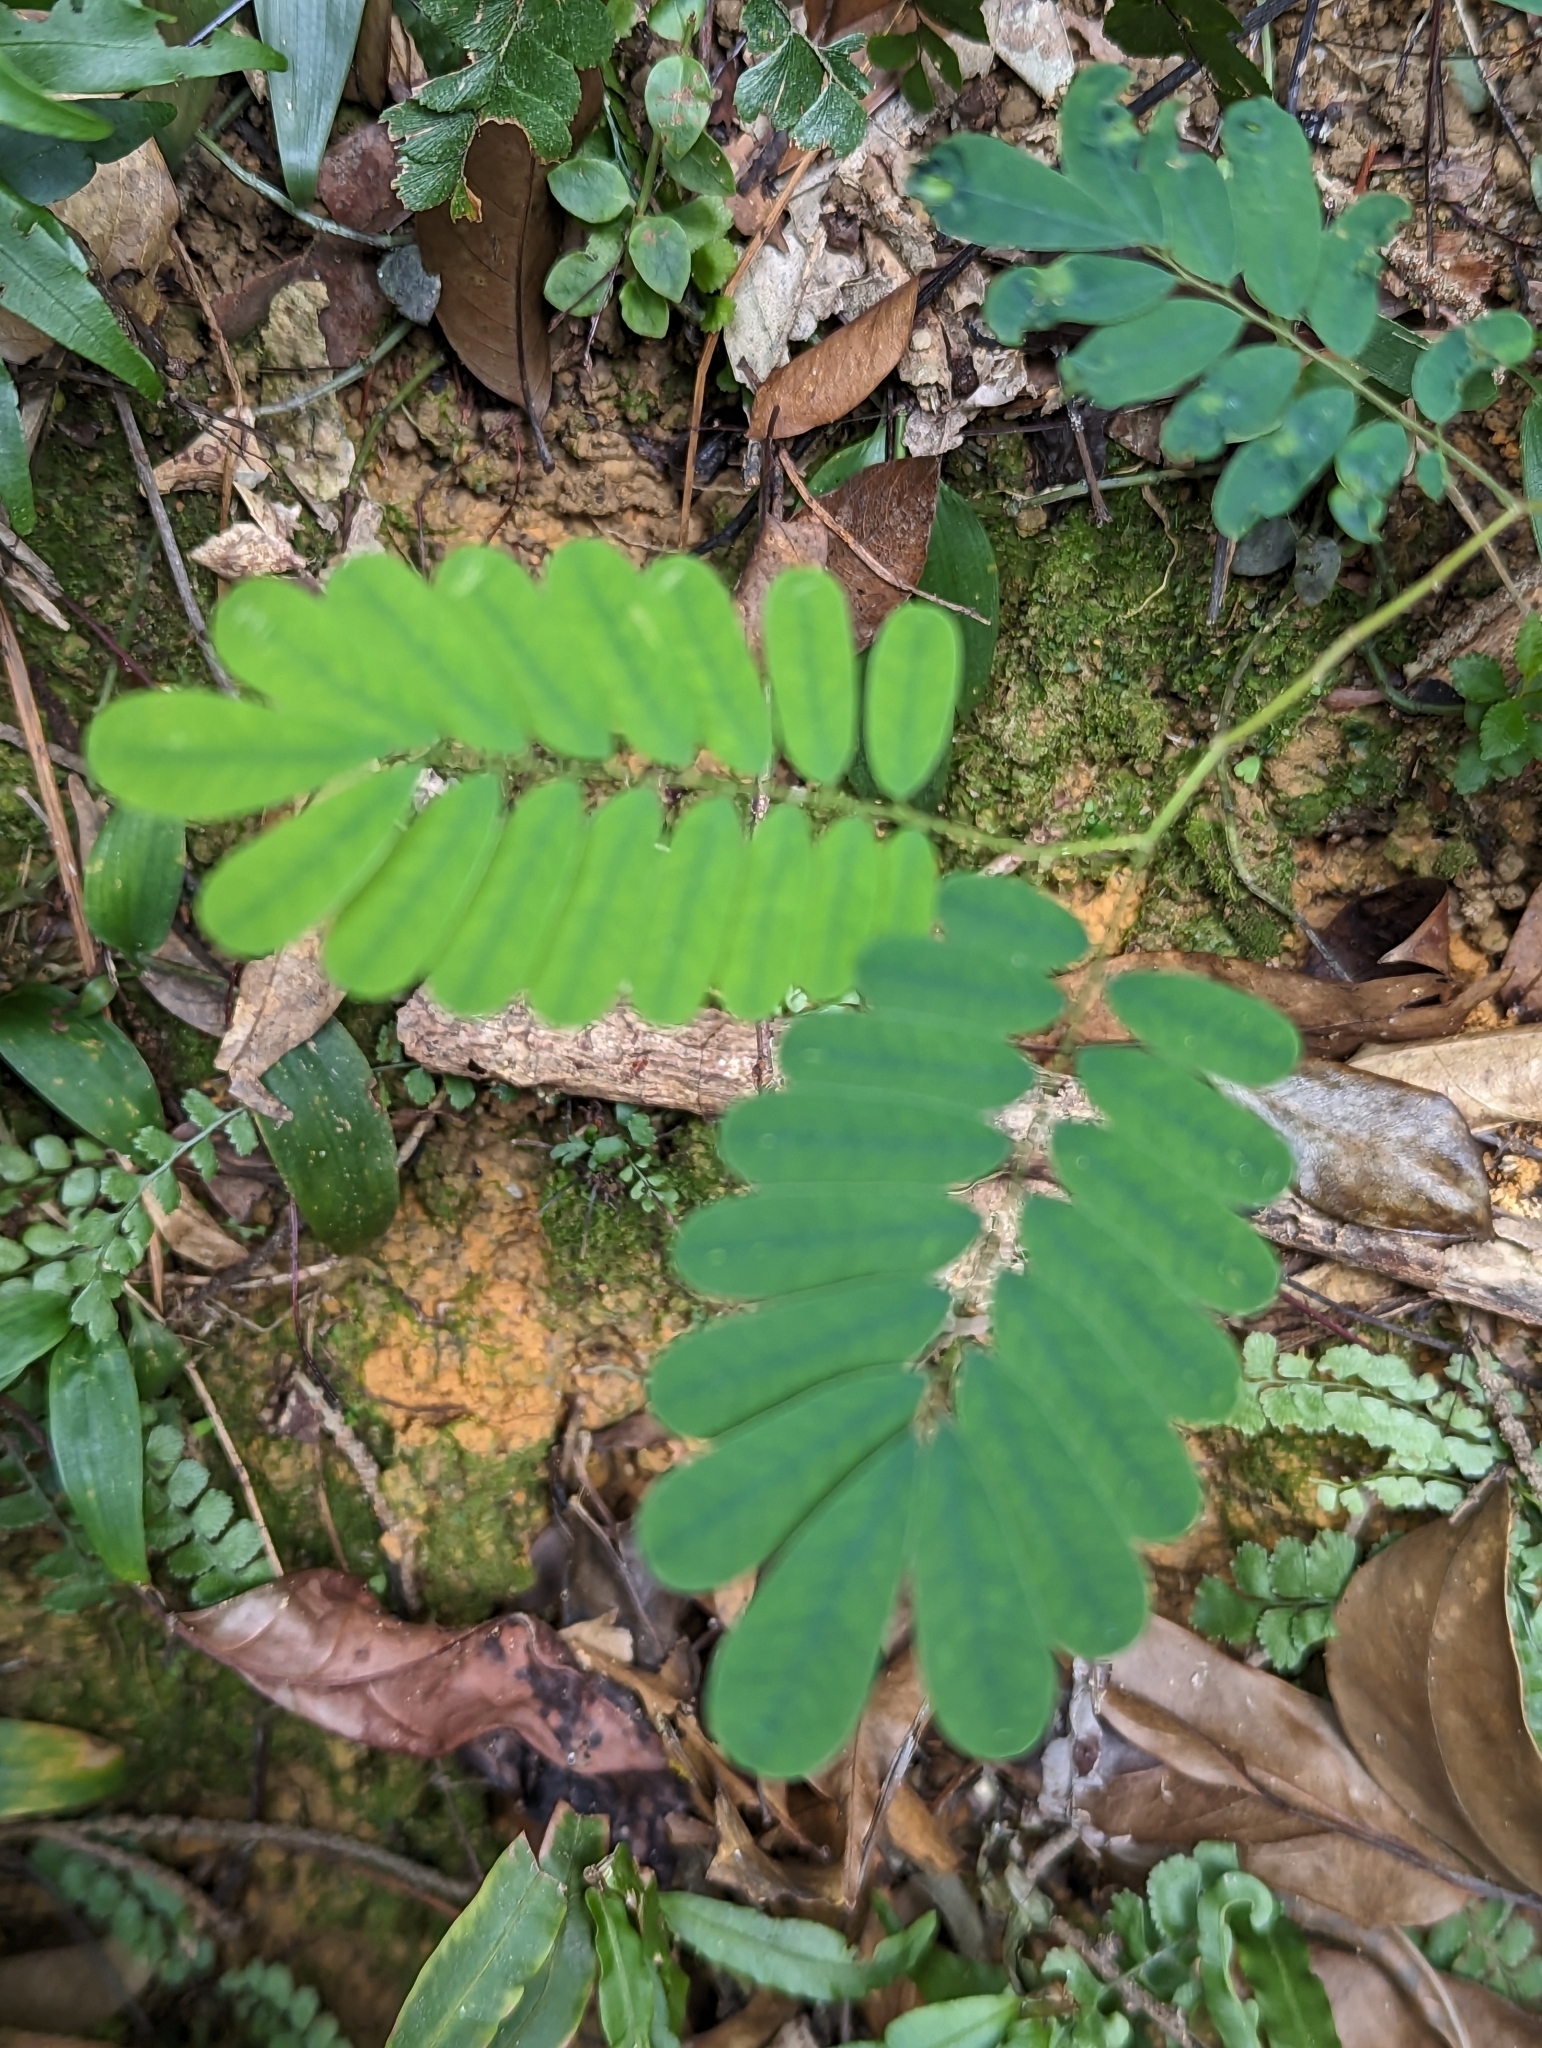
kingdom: Plantae
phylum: Tracheophyta
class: Magnoliopsida
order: Fabales
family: Fabaceae
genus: Abrus
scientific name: Abrus precatorius
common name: Rosarypea
